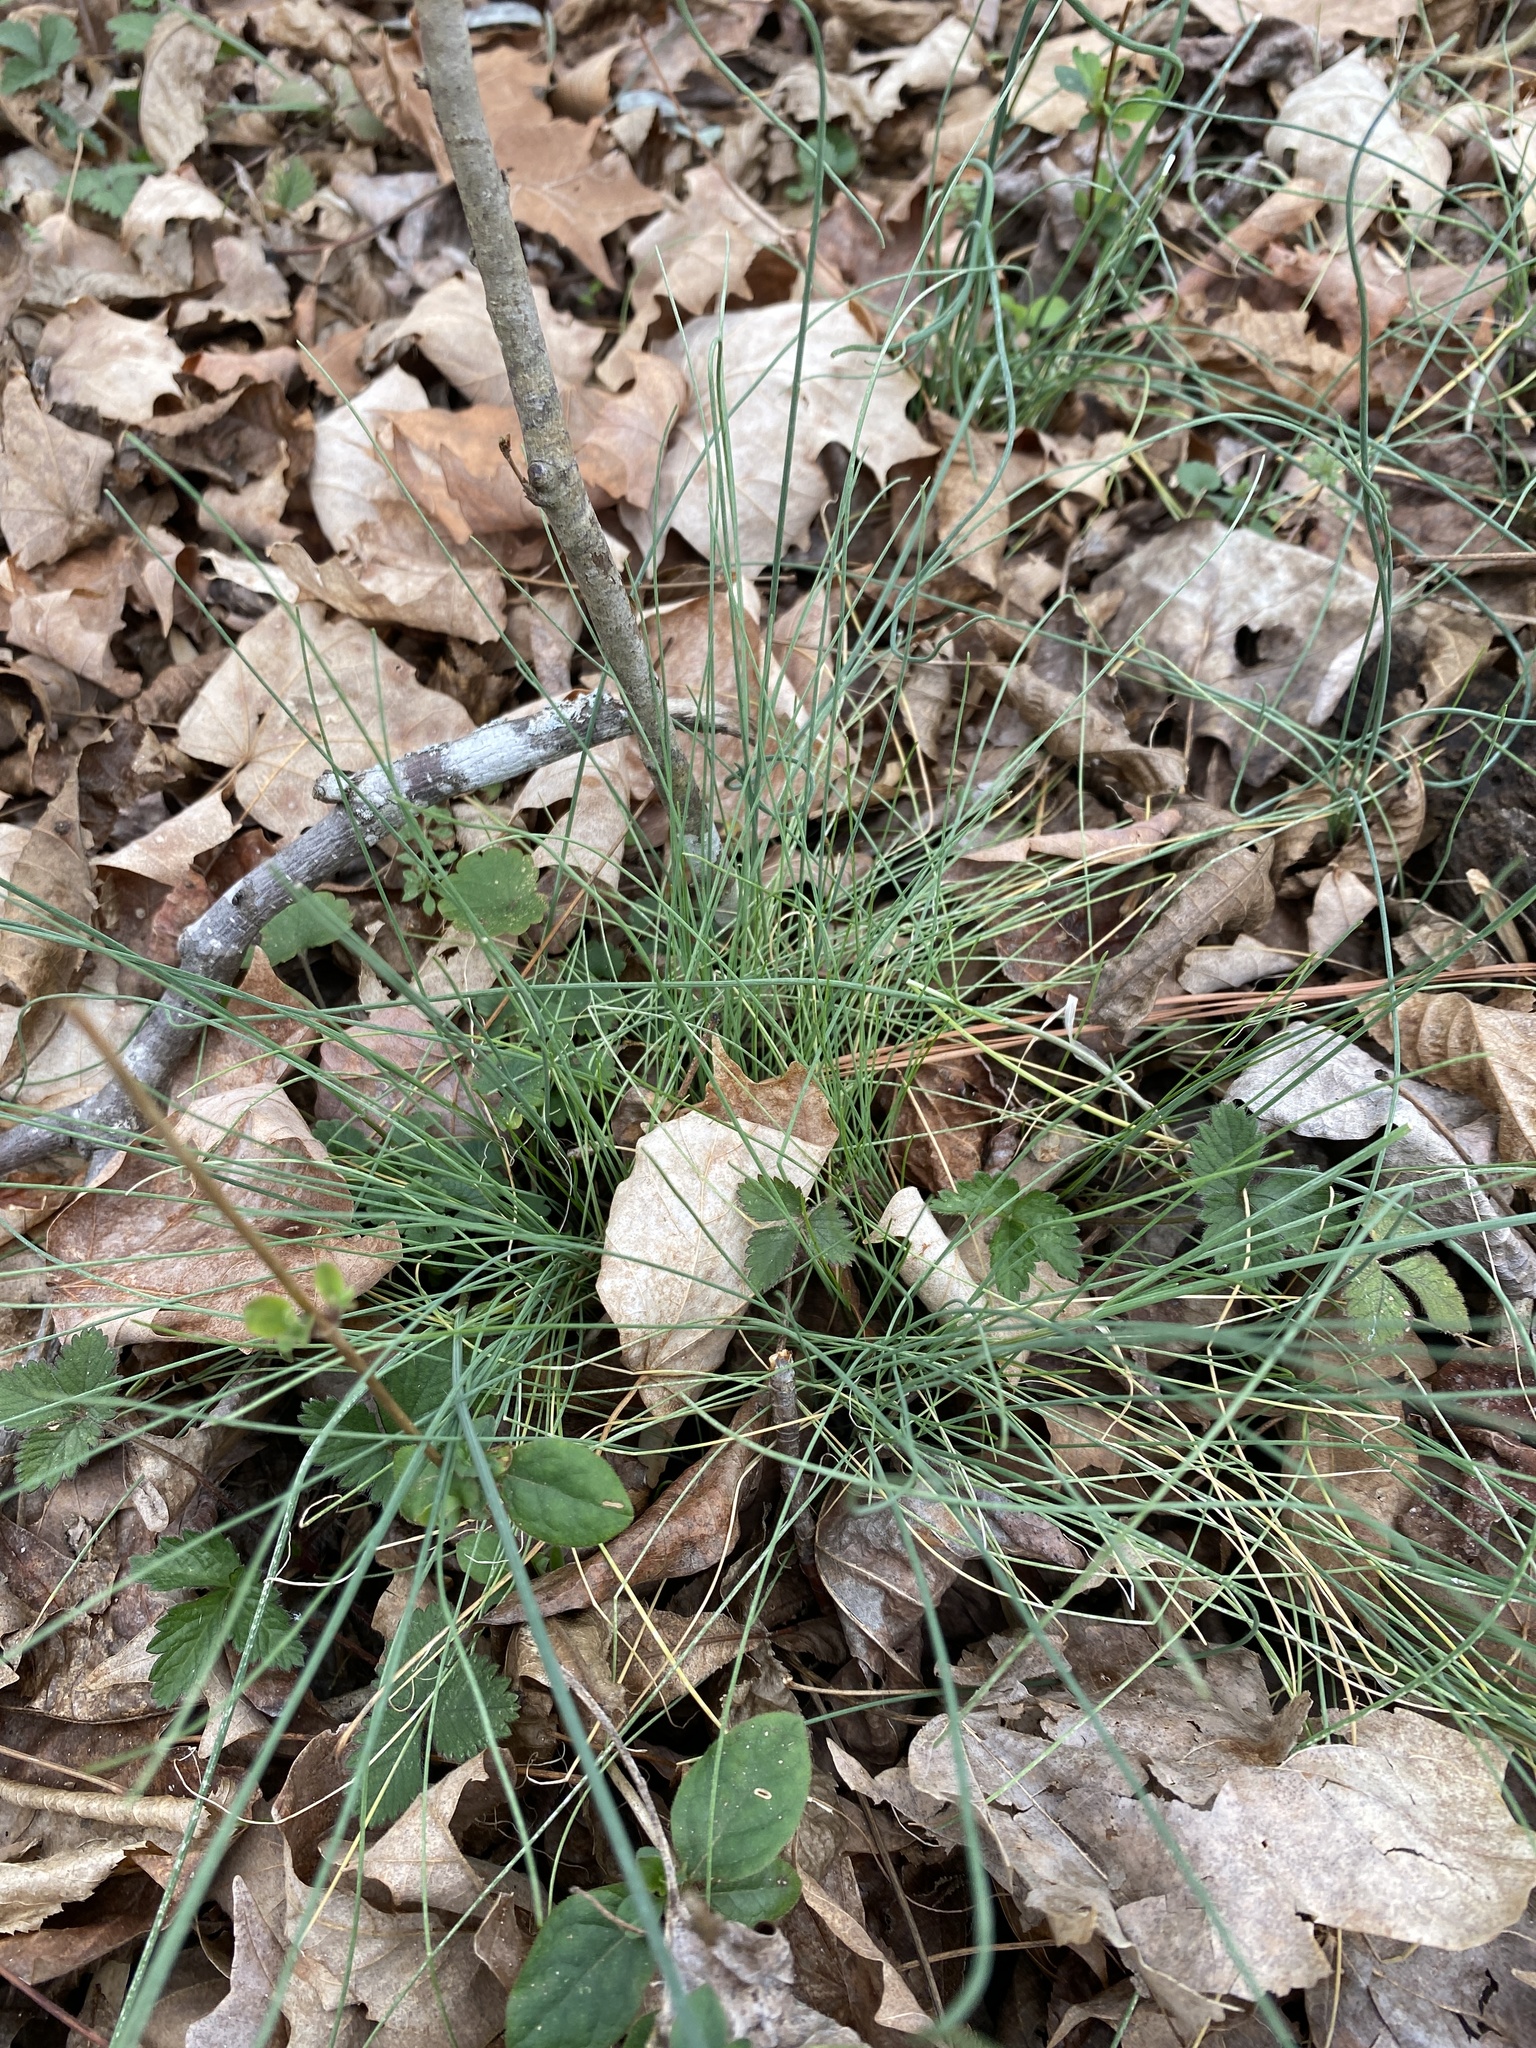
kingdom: Plantae
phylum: Tracheophyta
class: Liliopsida
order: Asparagales
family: Amaryllidaceae
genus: Allium
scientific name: Allium vineale
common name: Crow garlic
